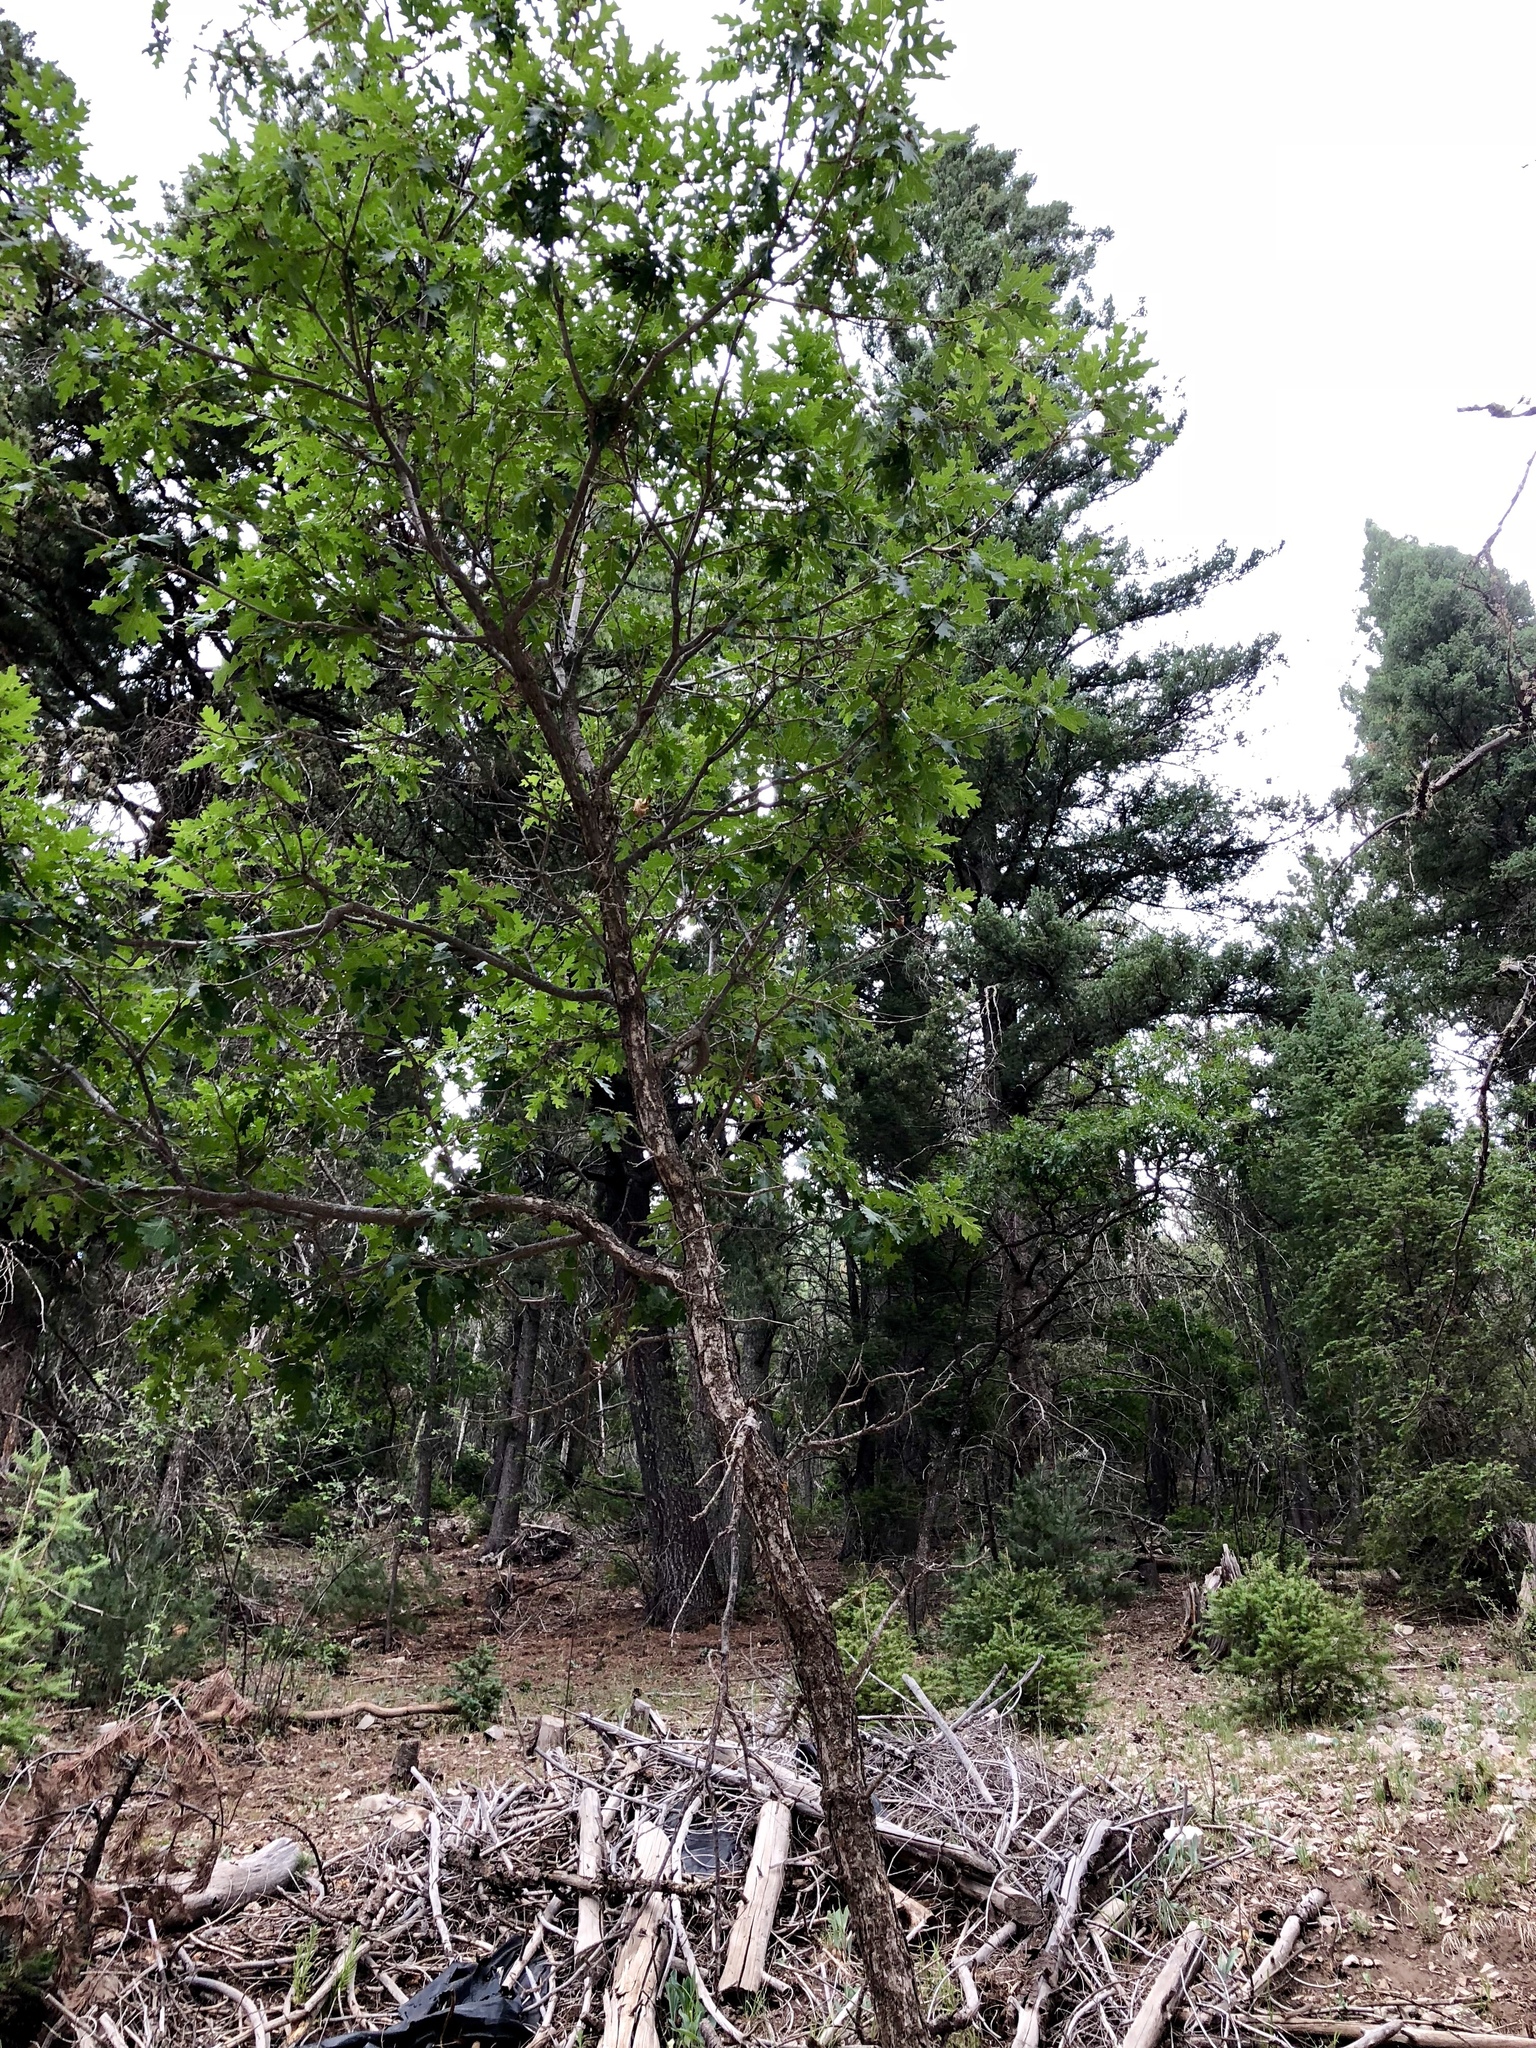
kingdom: Plantae
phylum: Tracheophyta
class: Magnoliopsida
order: Fagales
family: Fagaceae
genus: Quercus
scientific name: Quercus gambelii
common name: Gambel oak
